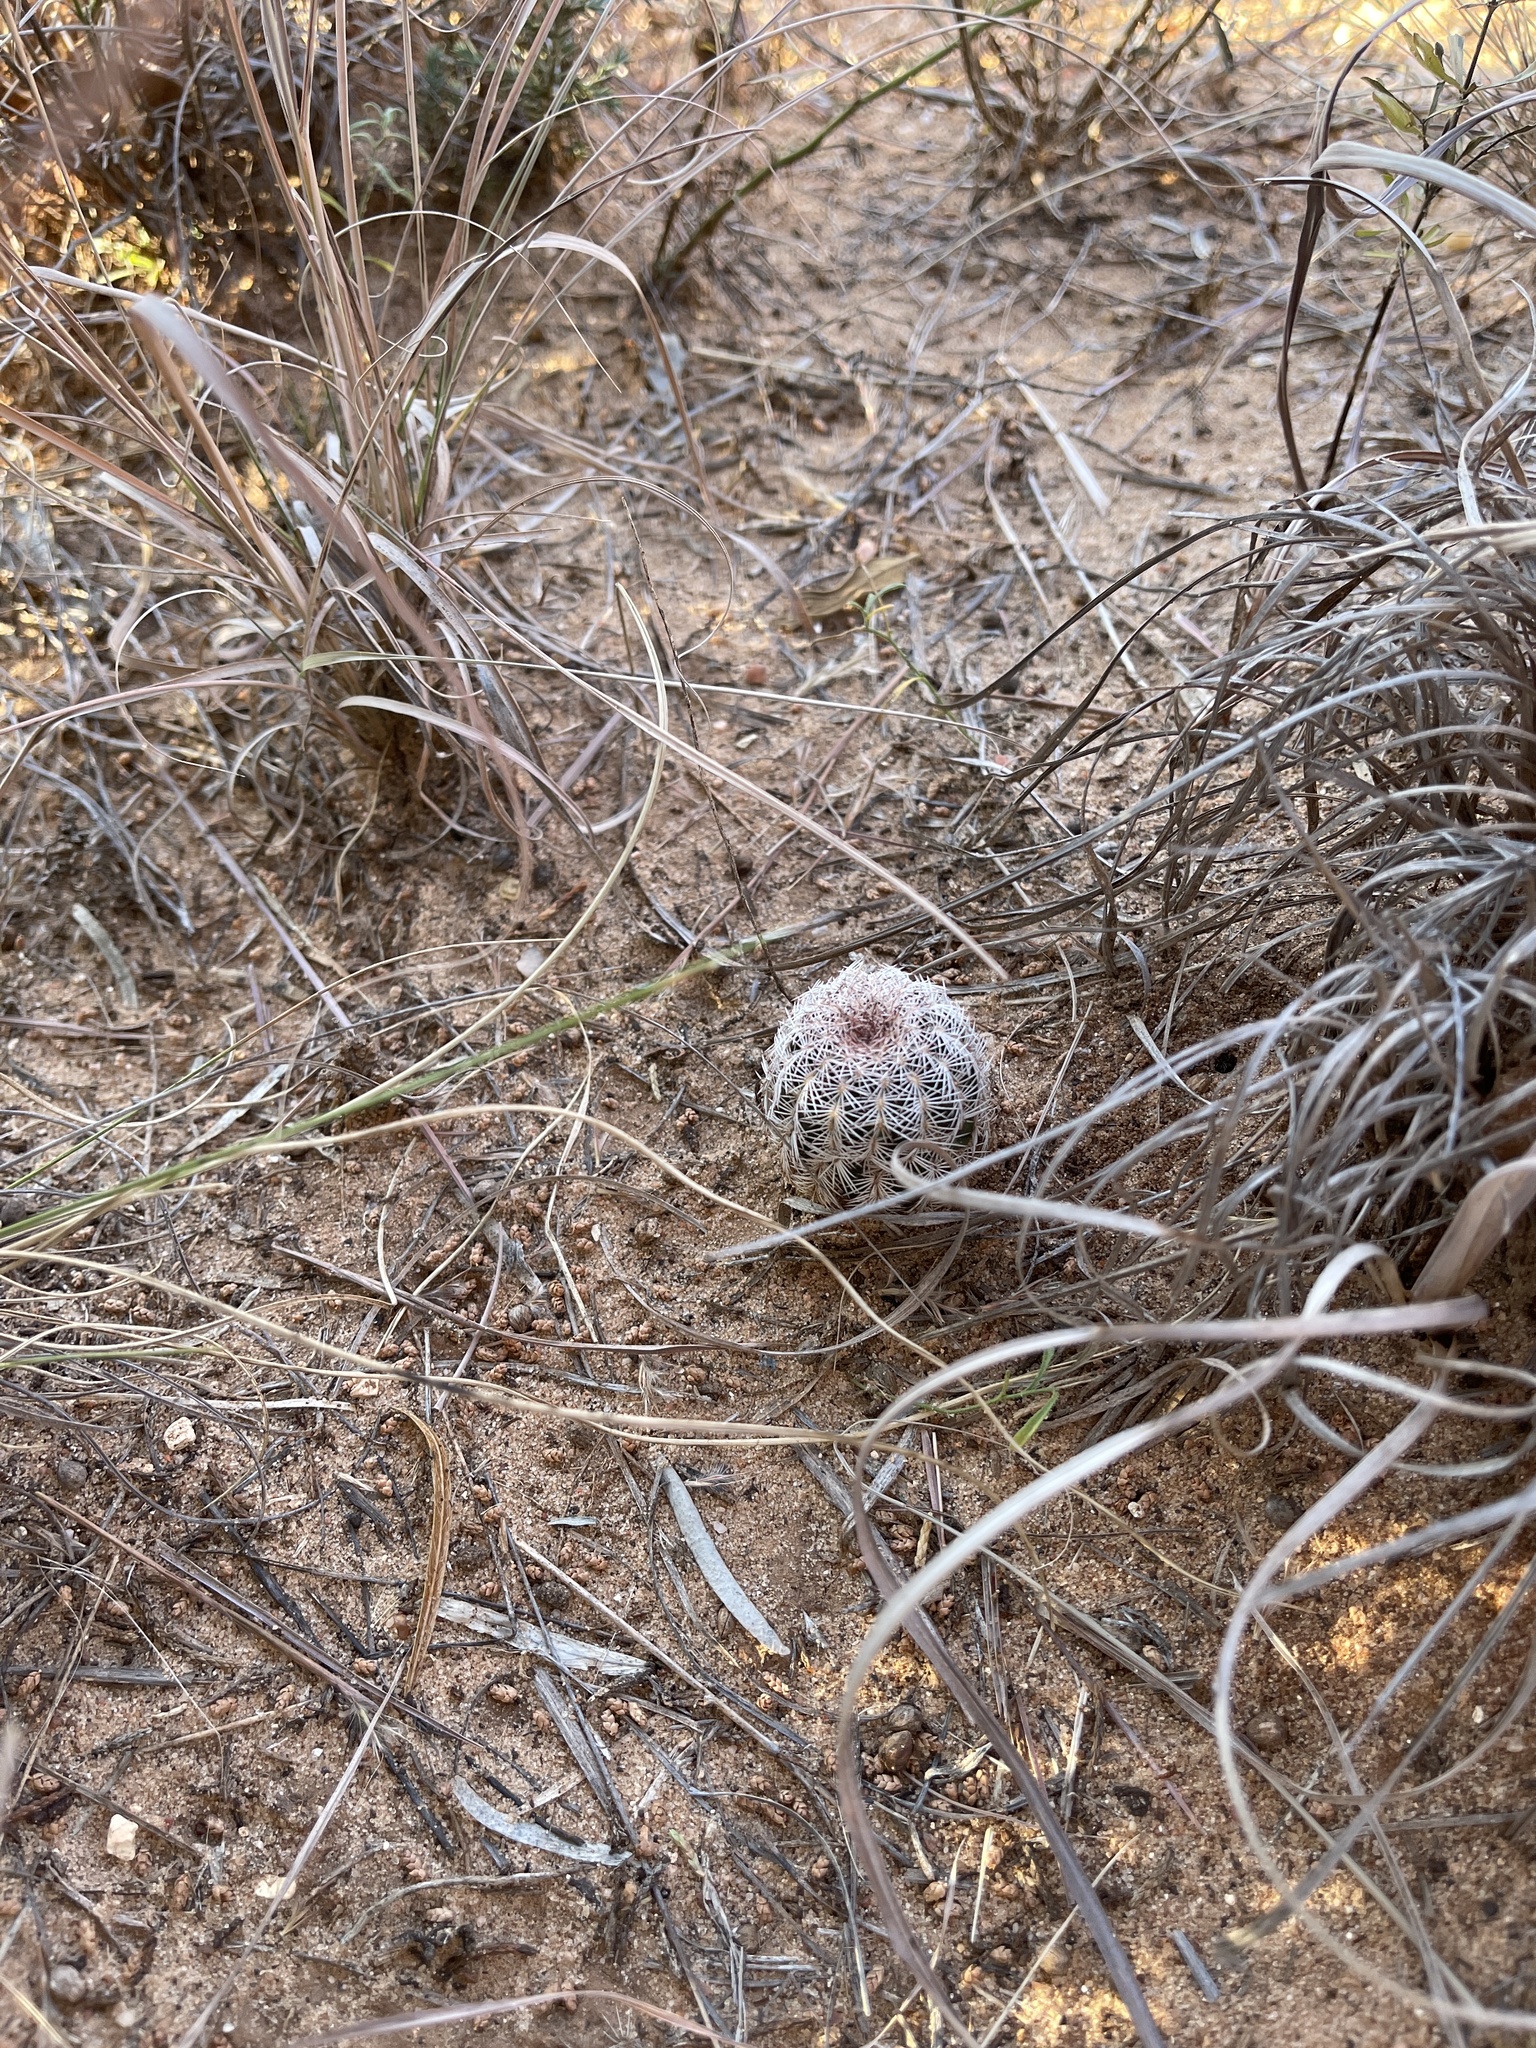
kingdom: Plantae
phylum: Tracheophyta
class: Magnoliopsida
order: Caryophyllales
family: Cactaceae
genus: Echinocereus
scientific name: Echinocereus reichenbachii
